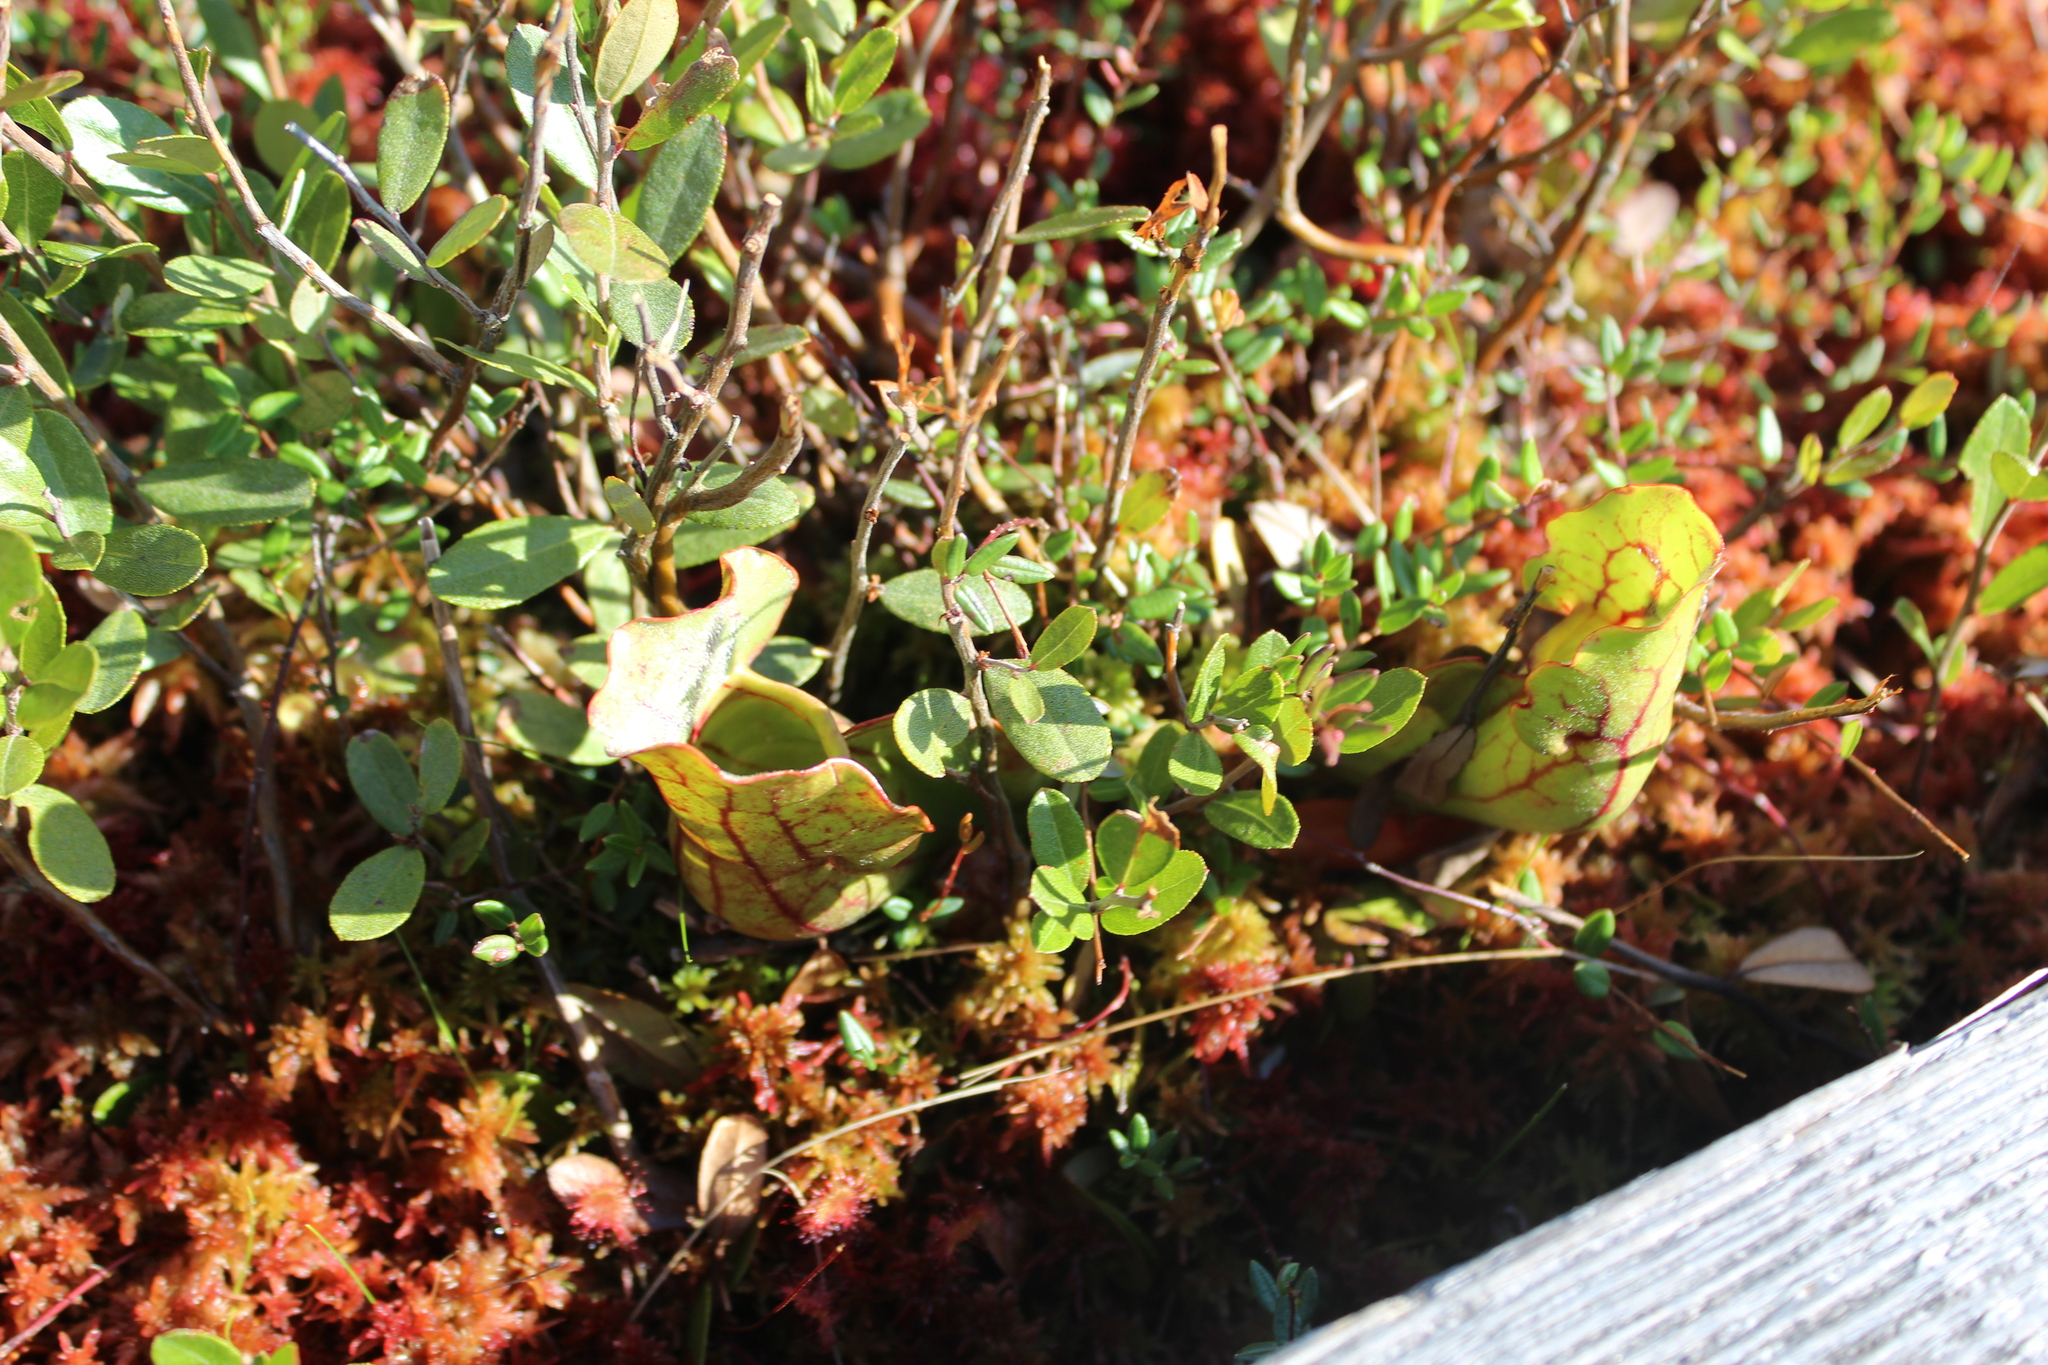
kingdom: Plantae
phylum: Tracheophyta
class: Magnoliopsida
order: Ericales
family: Ericaceae
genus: Chamaedaphne
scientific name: Chamaedaphne calyculata
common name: Leatherleaf
